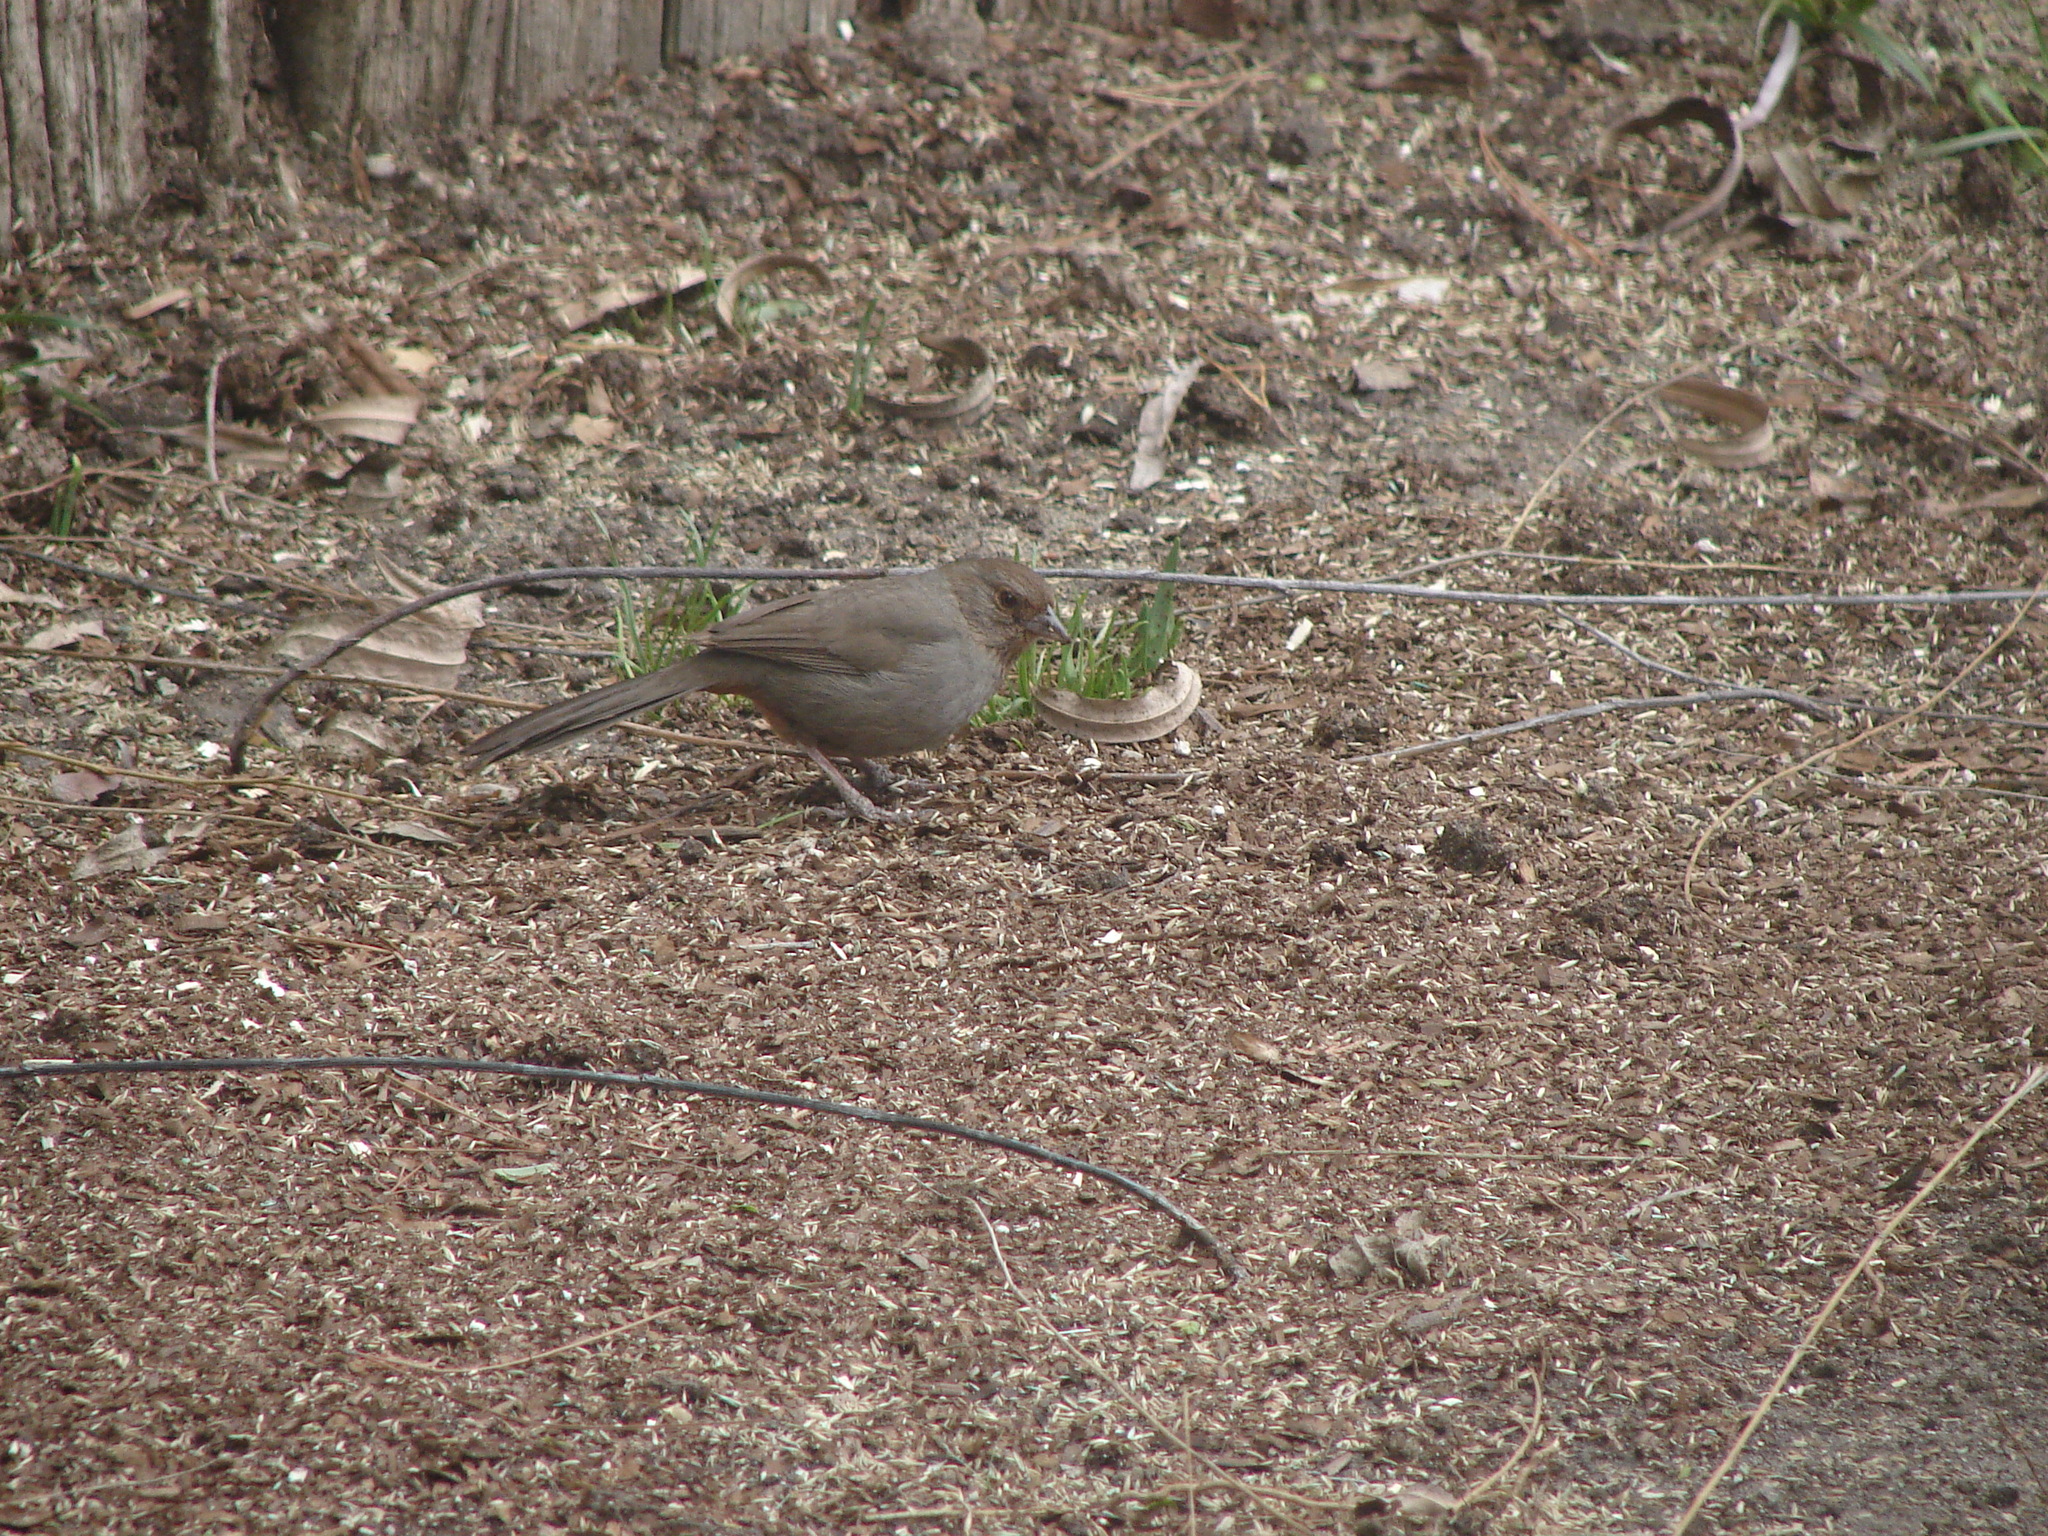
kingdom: Animalia
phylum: Chordata
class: Aves
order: Passeriformes
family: Passerellidae
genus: Melozone
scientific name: Melozone crissalis
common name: California towhee
